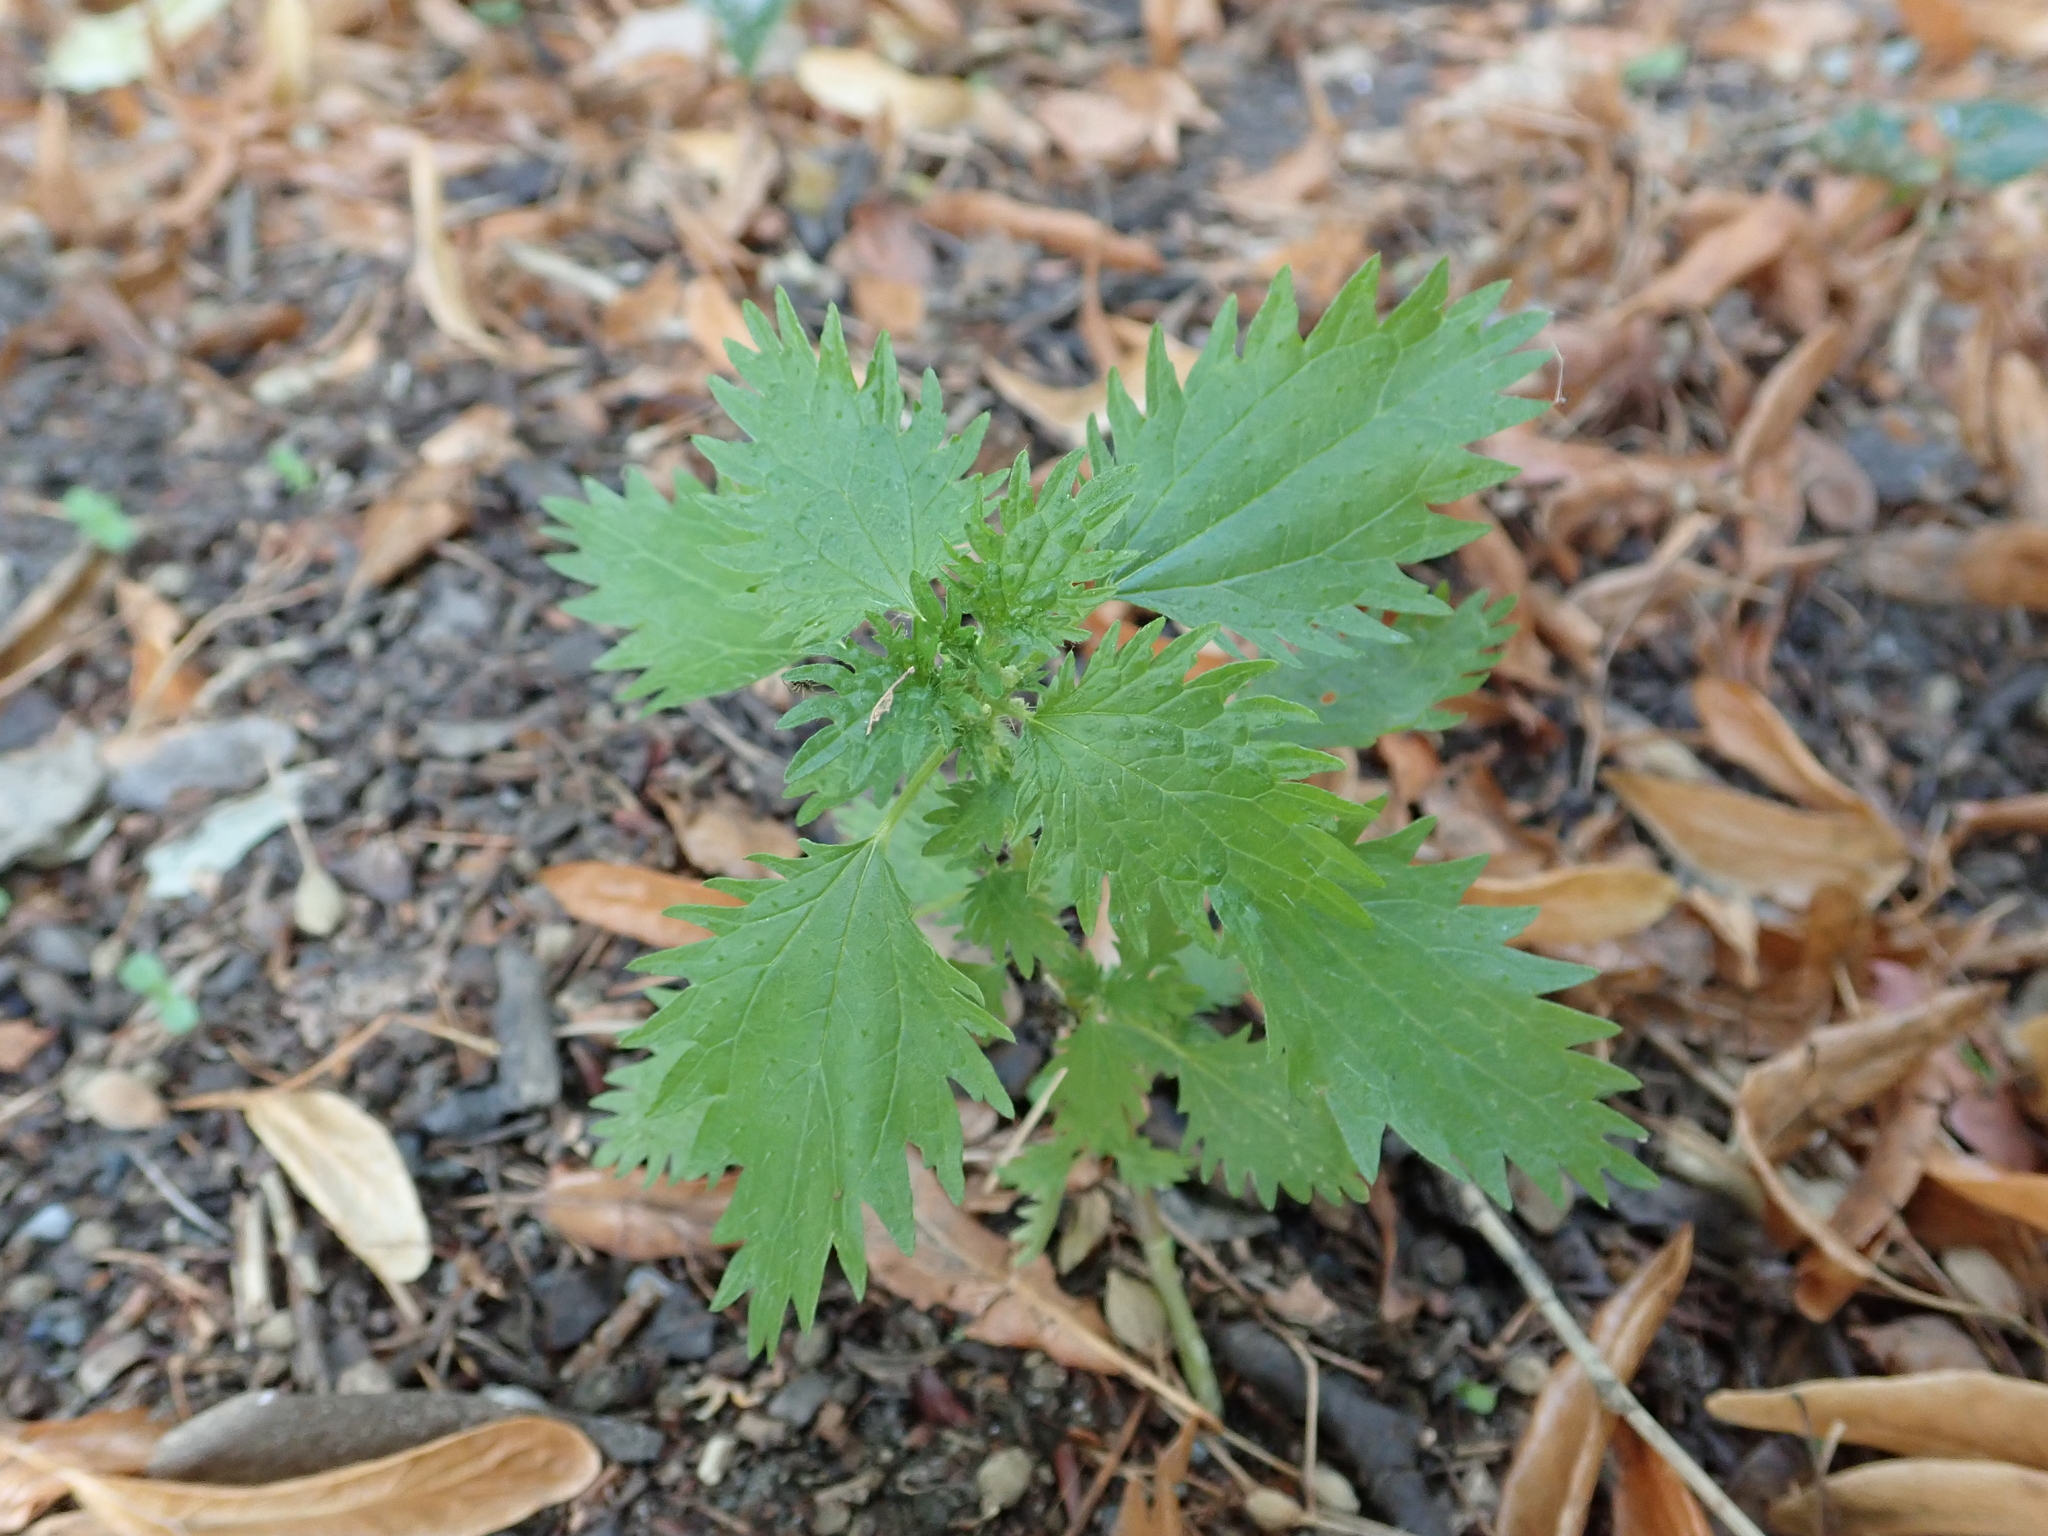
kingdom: Plantae
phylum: Tracheophyta
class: Magnoliopsida
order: Rosales
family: Urticaceae
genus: Urtica
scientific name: Urtica urens
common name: Dwarf nettle
